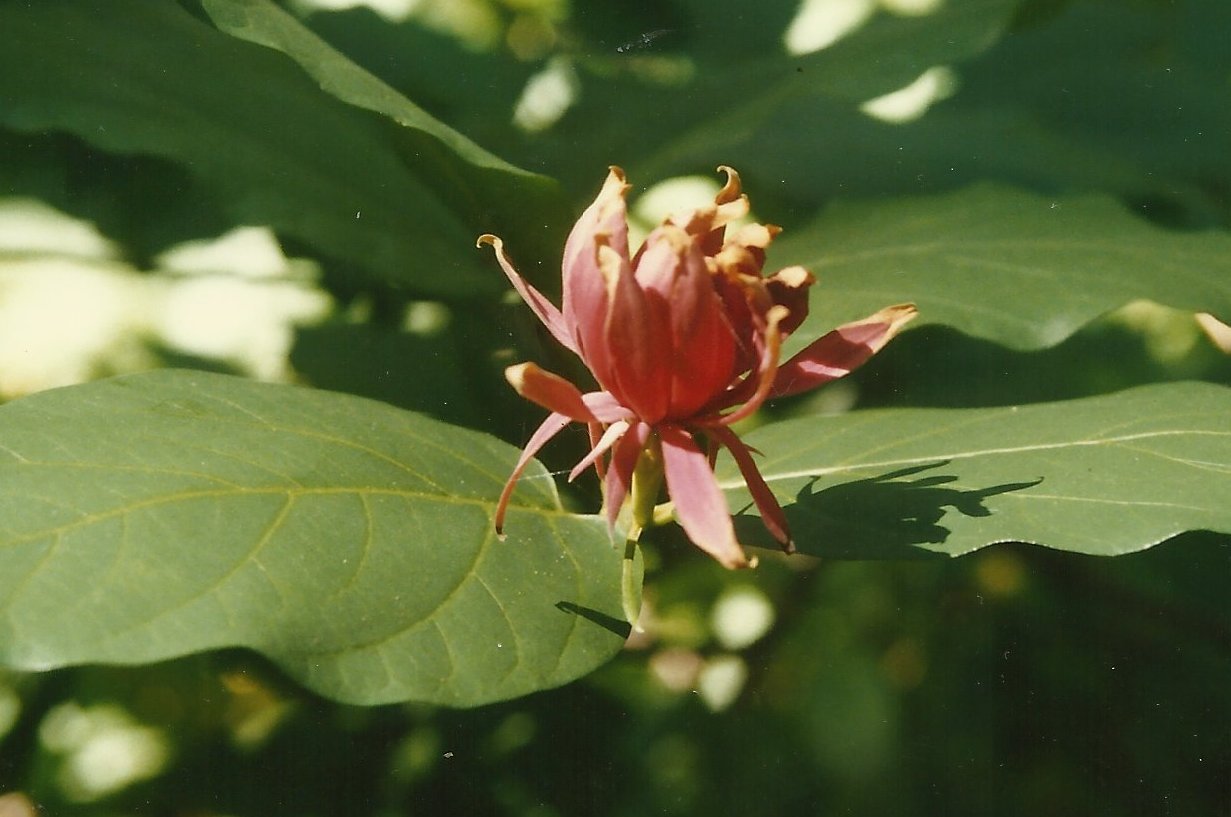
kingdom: Plantae
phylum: Tracheophyta
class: Magnoliopsida
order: Laurales
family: Calycanthaceae
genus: Calycanthus
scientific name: Calycanthus occidentalis
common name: California spicebush
